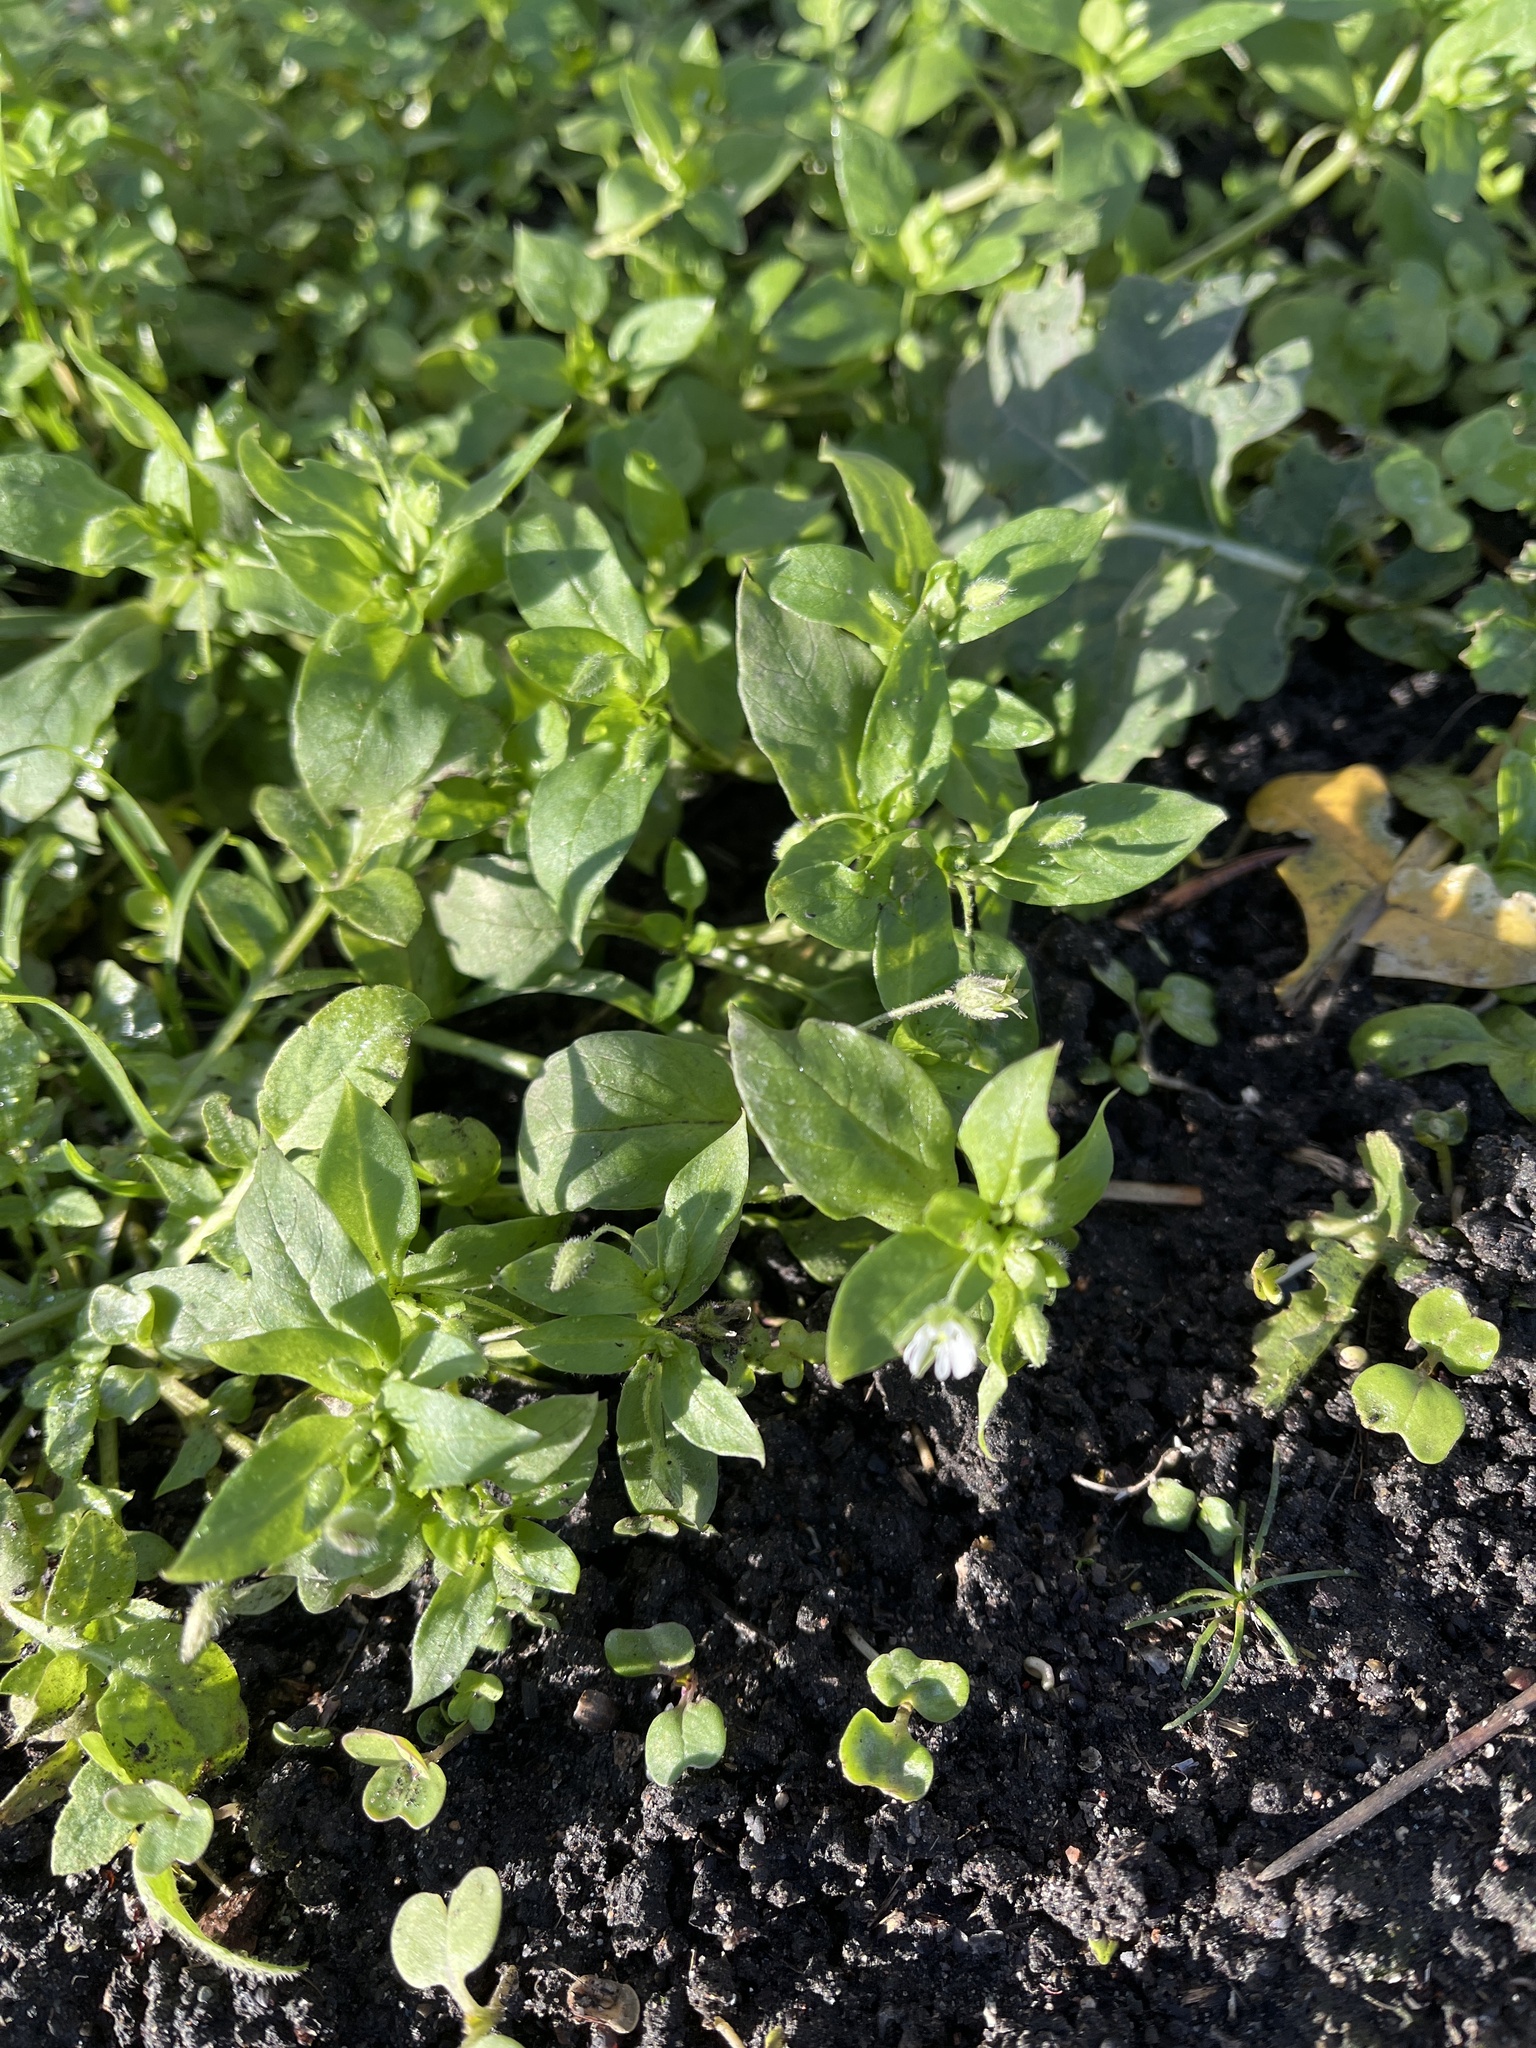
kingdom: Plantae
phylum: Tracheophyta
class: Magnoliopsida
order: Caryophyllales
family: Caryophyllaceae
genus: Stellaria
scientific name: Stellaria media
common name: Common chickweed
